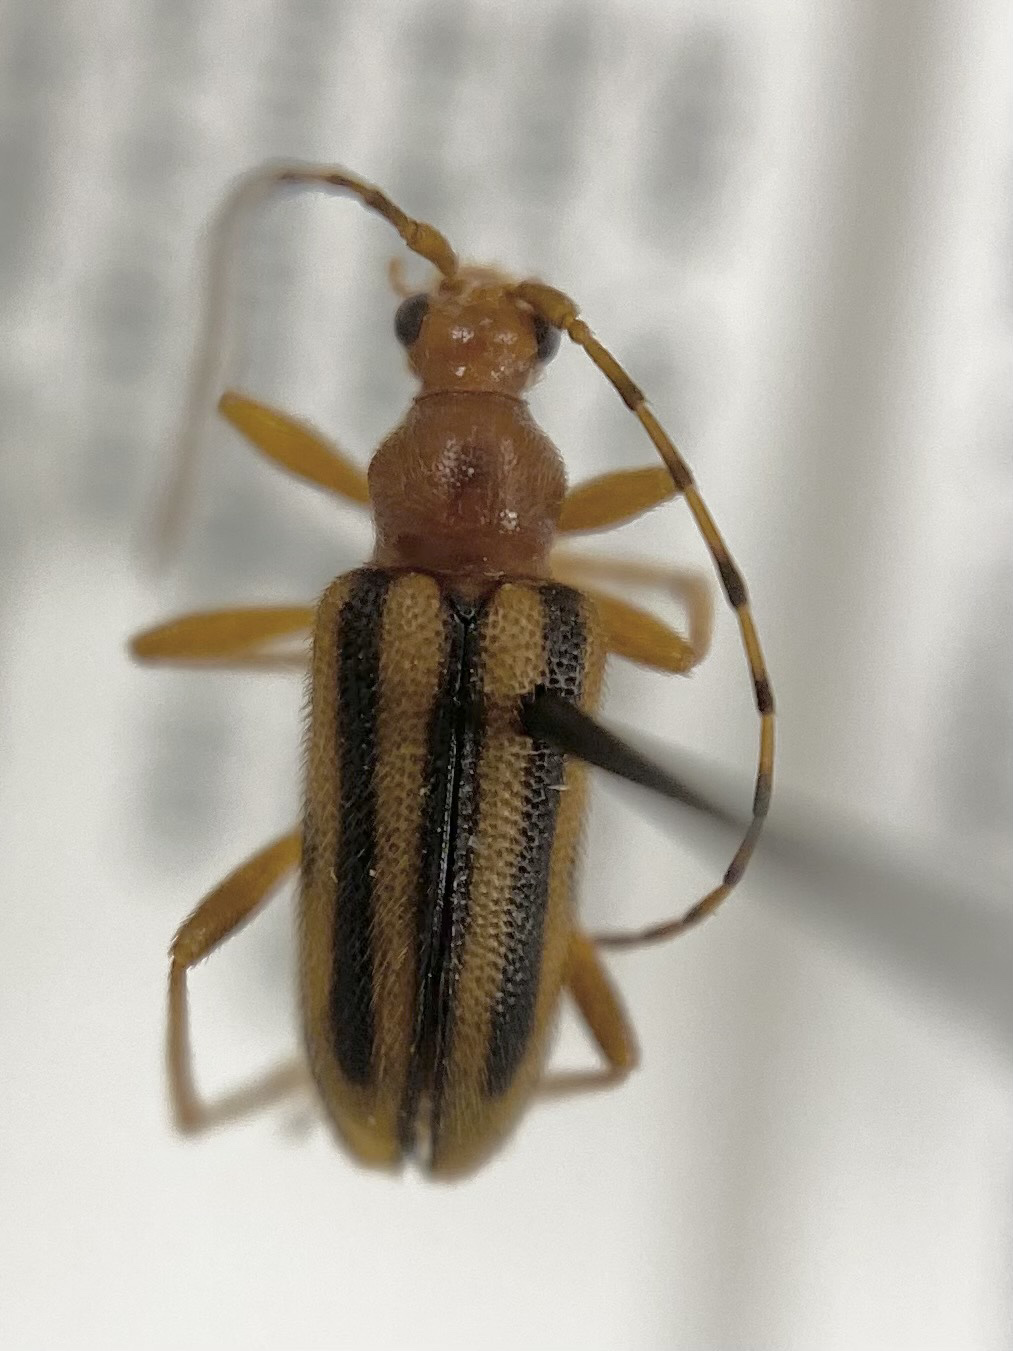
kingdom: Animalia
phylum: Arthropoda
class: Insecta
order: Coleoptera
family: Cerambycidae
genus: Metacmaeops
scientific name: Metacmaeops vittata
